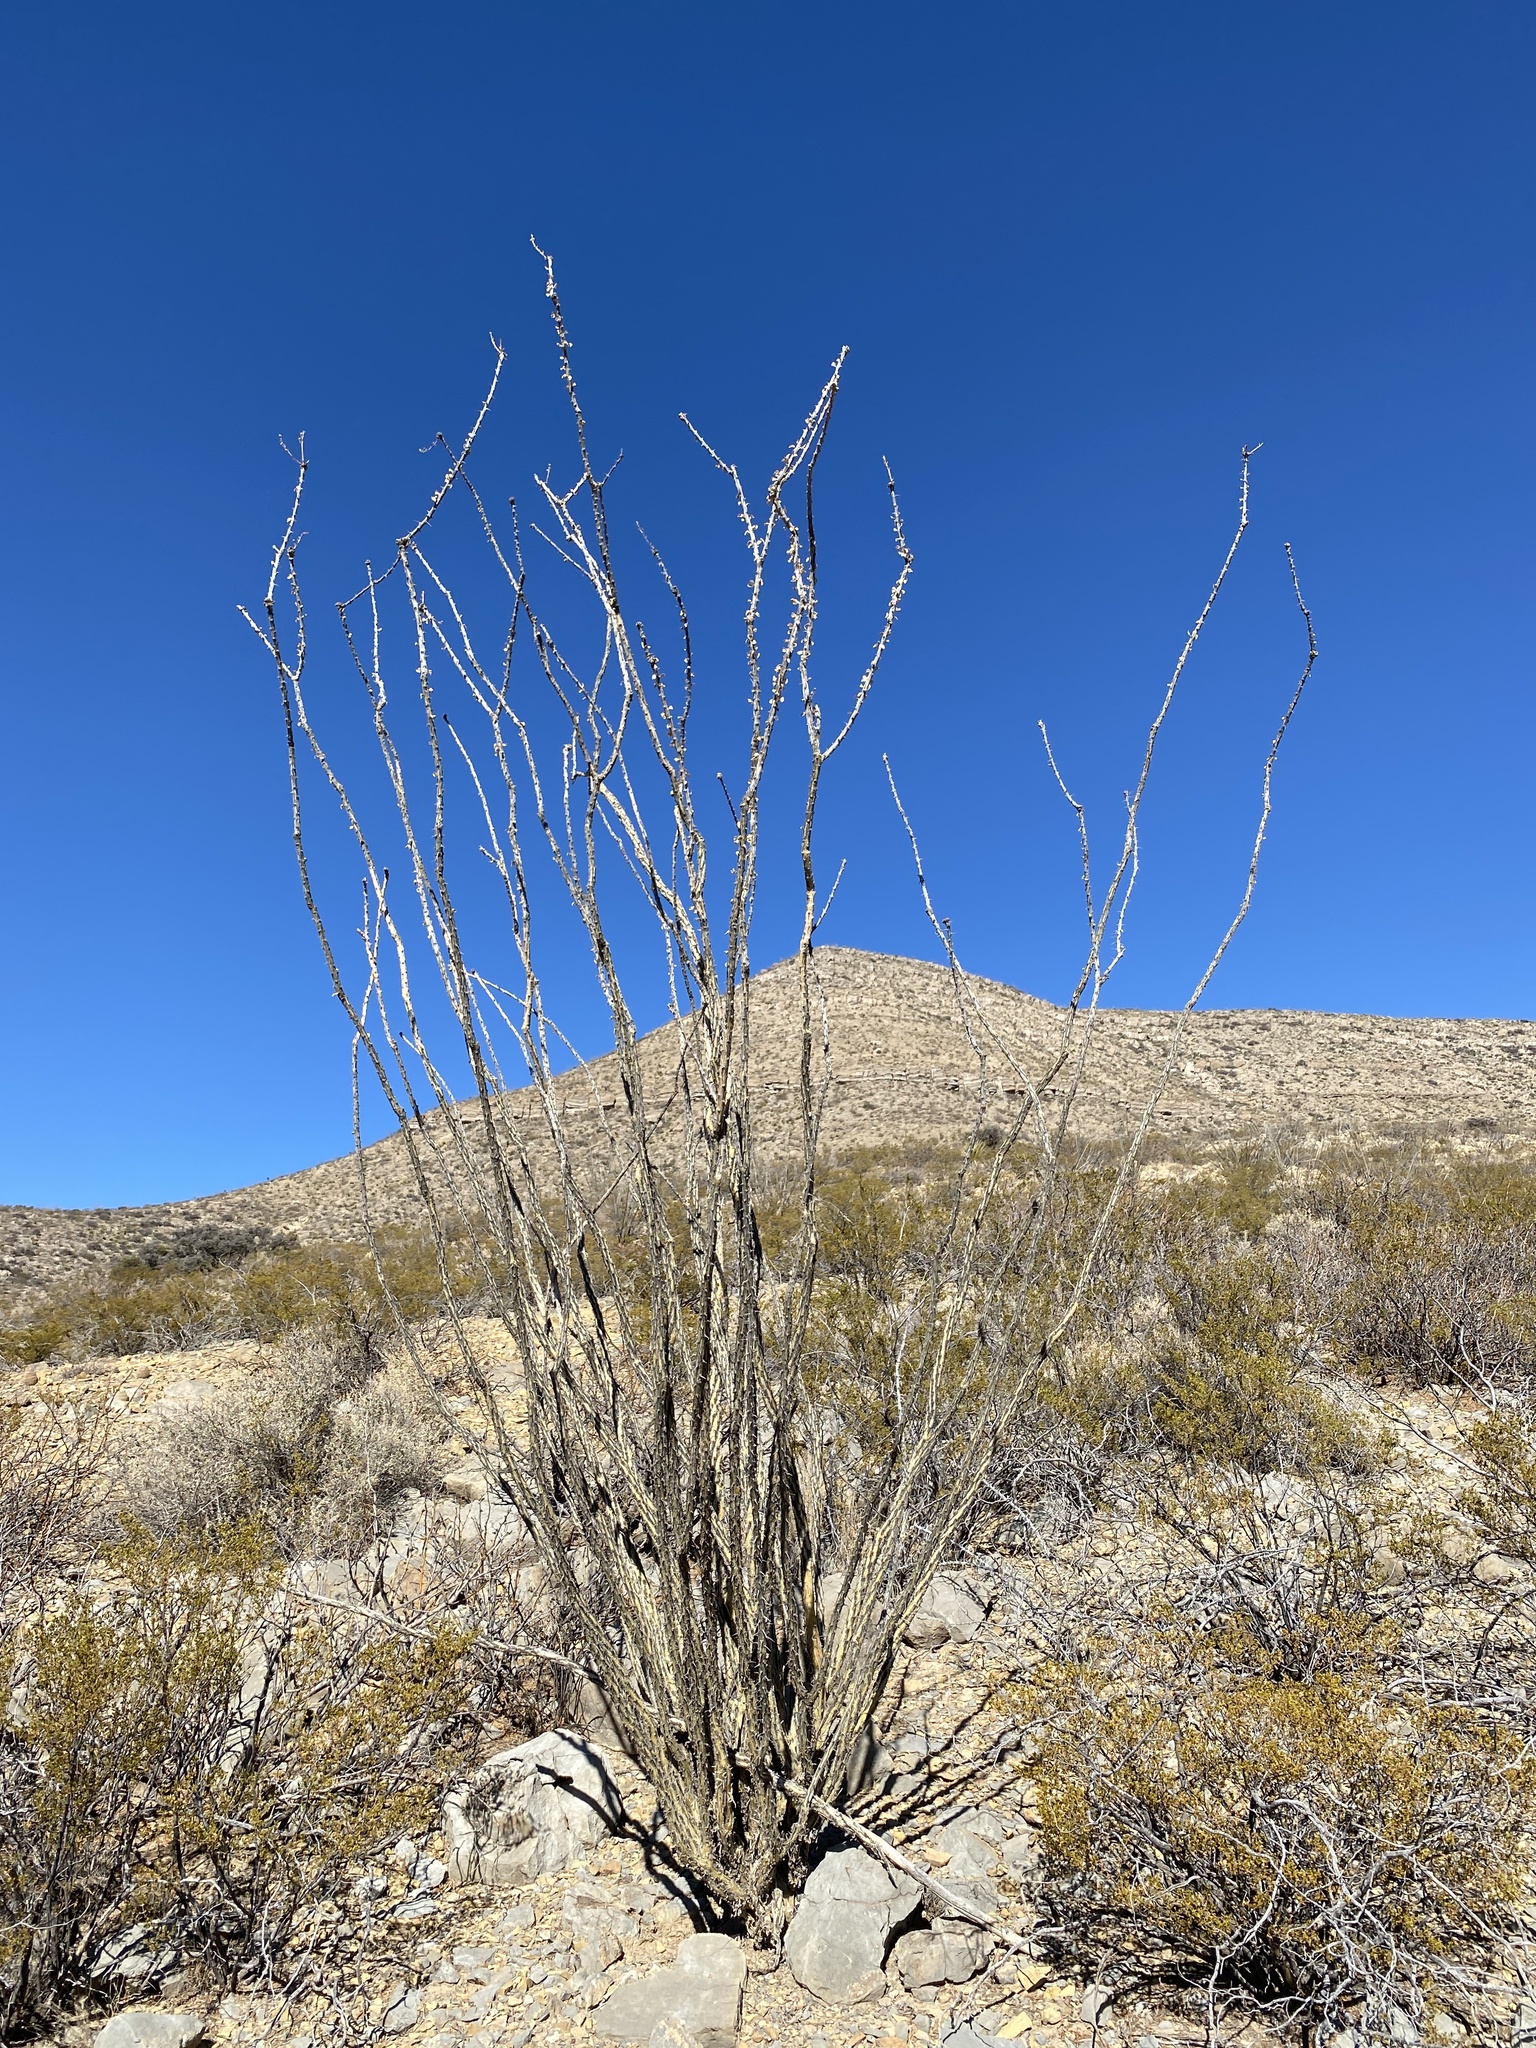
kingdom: Plantae
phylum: Tracheophyta
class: Magnoliopsida
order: Ericales
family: Fouquieriaceae
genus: Fouquieria
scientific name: Fouquieria splendens
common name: Vine-cactus
